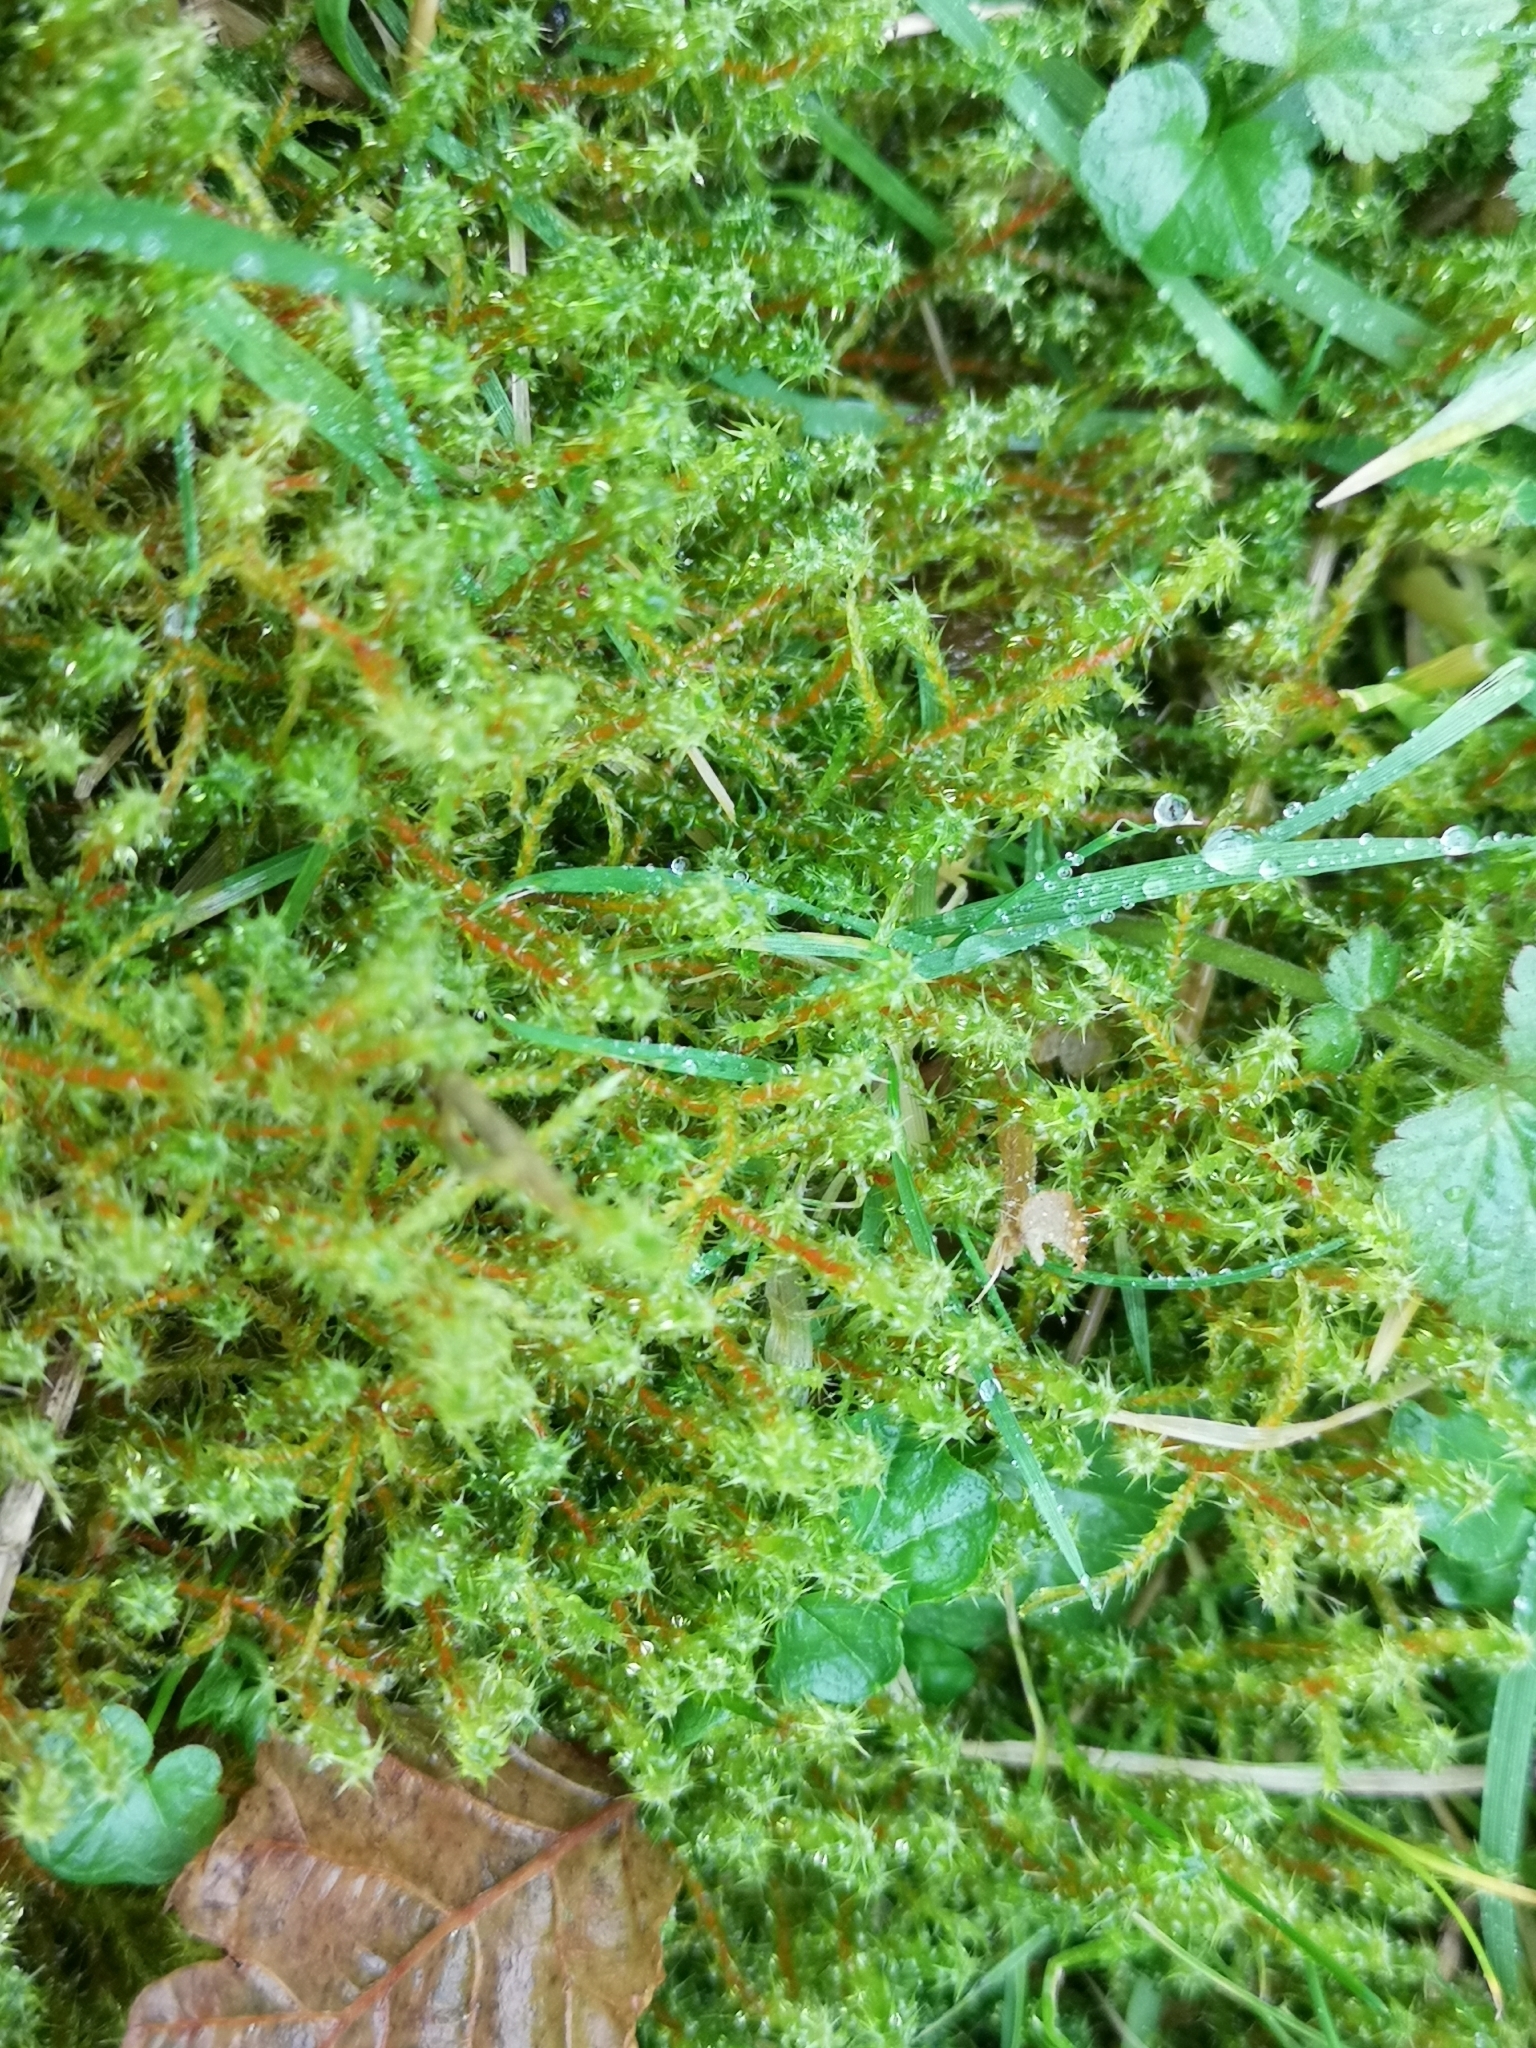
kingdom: Plantae
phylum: Bryophyta
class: Bryopsida
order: Hypnales
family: Hylocomiaceae
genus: Rhytidiadelphus
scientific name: Rhytidiadelphus squarrosus
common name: Springy turf-moss
